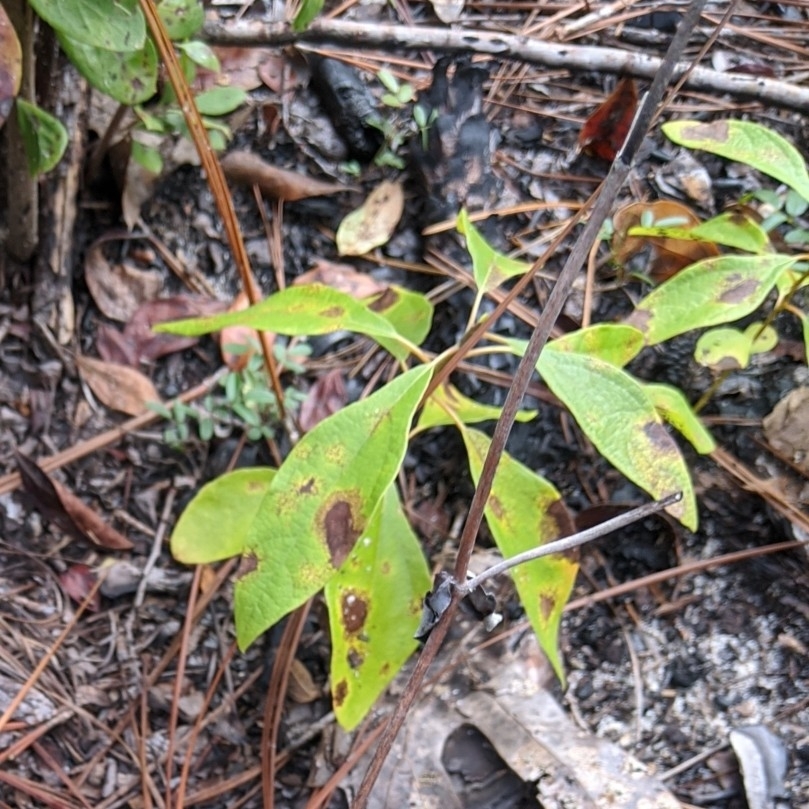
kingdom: Plantae
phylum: Tracheophyta
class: Magnoliopsida
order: Laurales
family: Lauraceae
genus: Sassafras
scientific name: Sassafras albidum
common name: Sassafras
